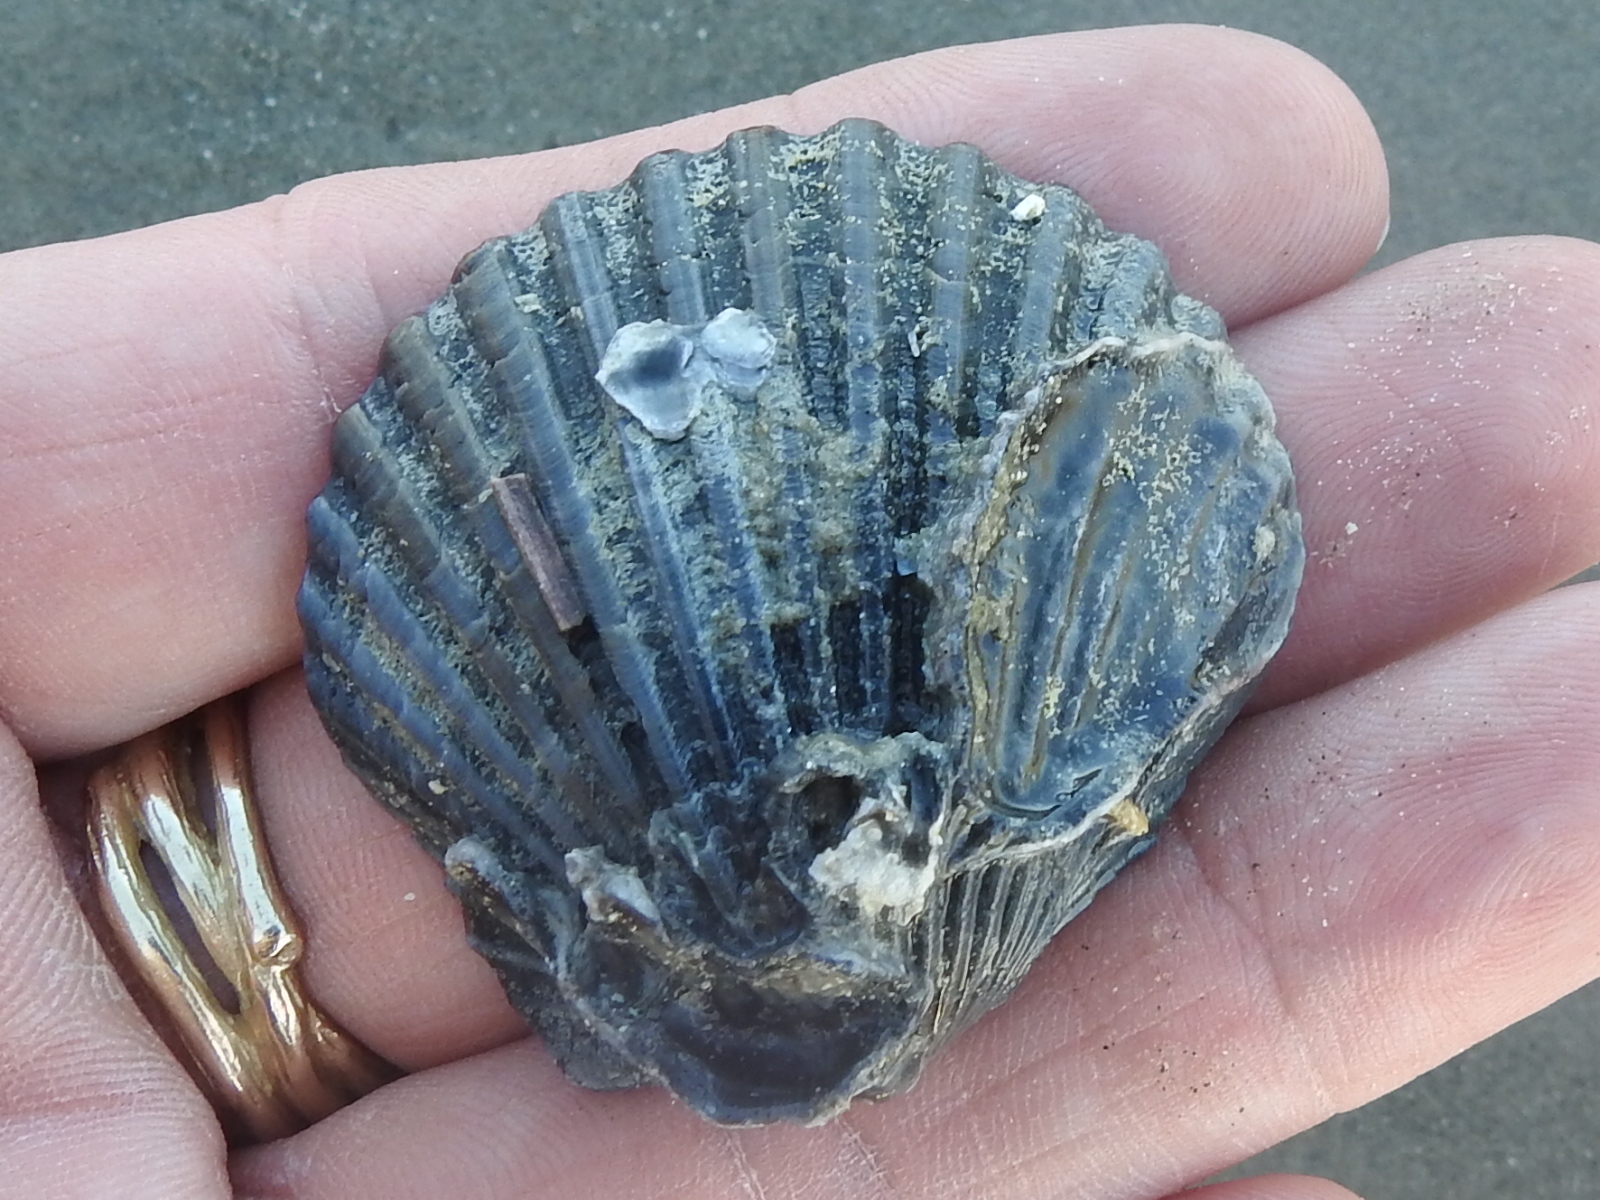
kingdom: Animalia
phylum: Mollusca
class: Bivalvia
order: Pectinida
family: Pectinidae
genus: Argopecten
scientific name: Argopecten irradians
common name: Atlantic bay scallop
